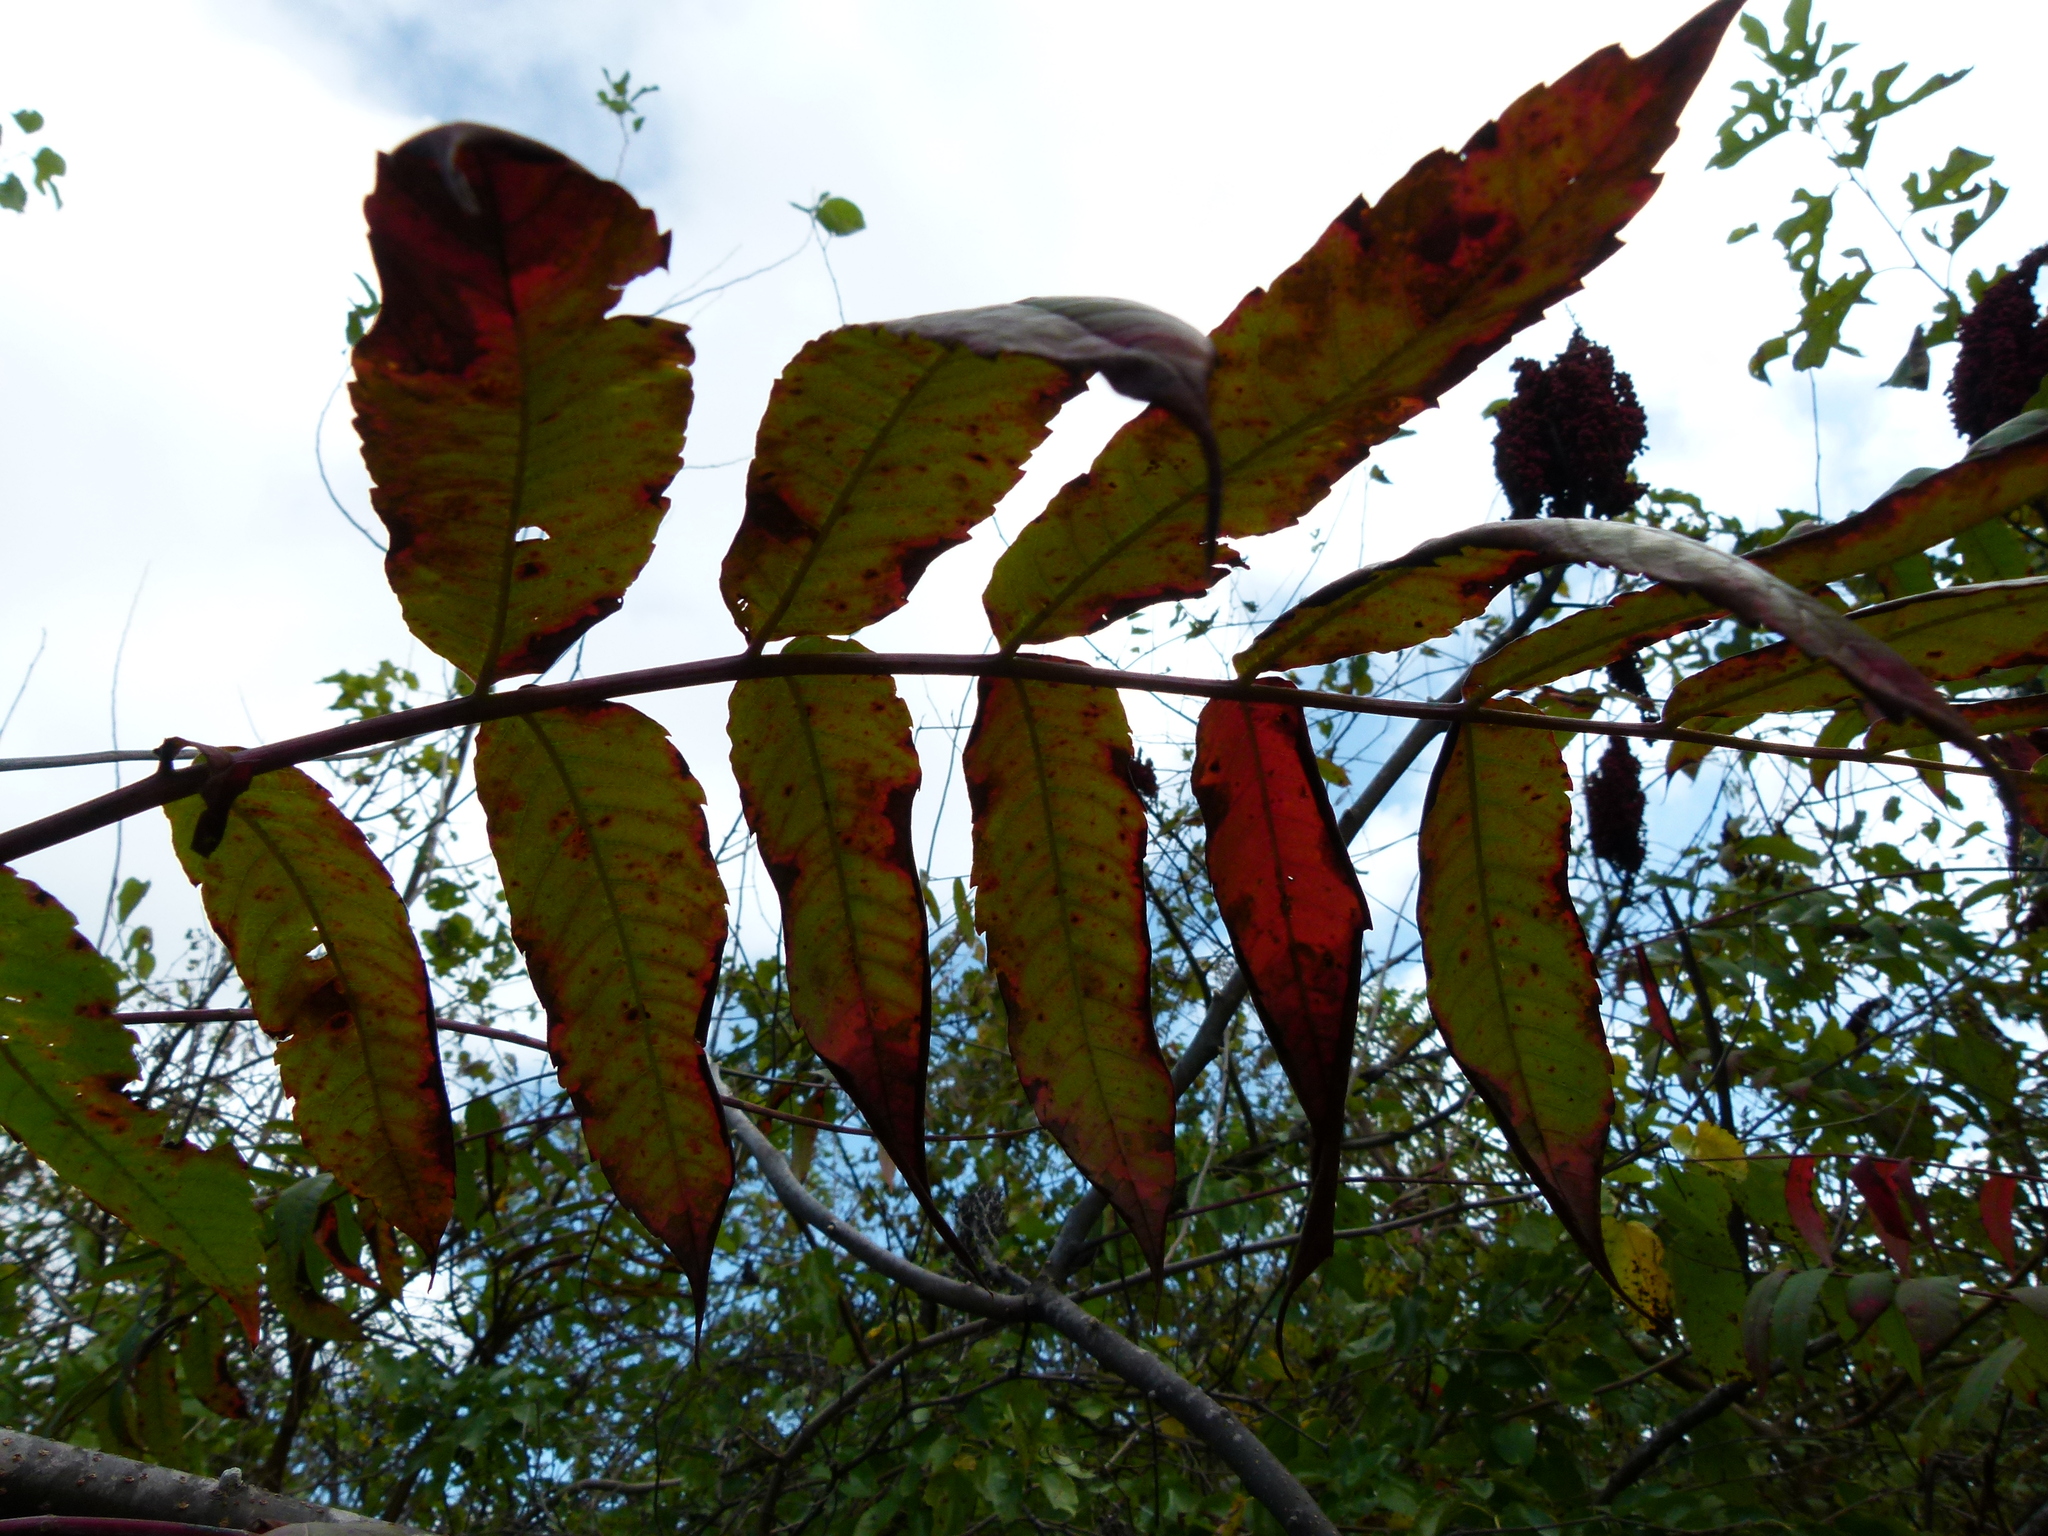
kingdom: Plantae
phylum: Tracheophyta
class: Magnoliopsida
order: Sapindales
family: Anacardiaceae
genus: Rhus
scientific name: Rhus glabra
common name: Scarlet sumac
